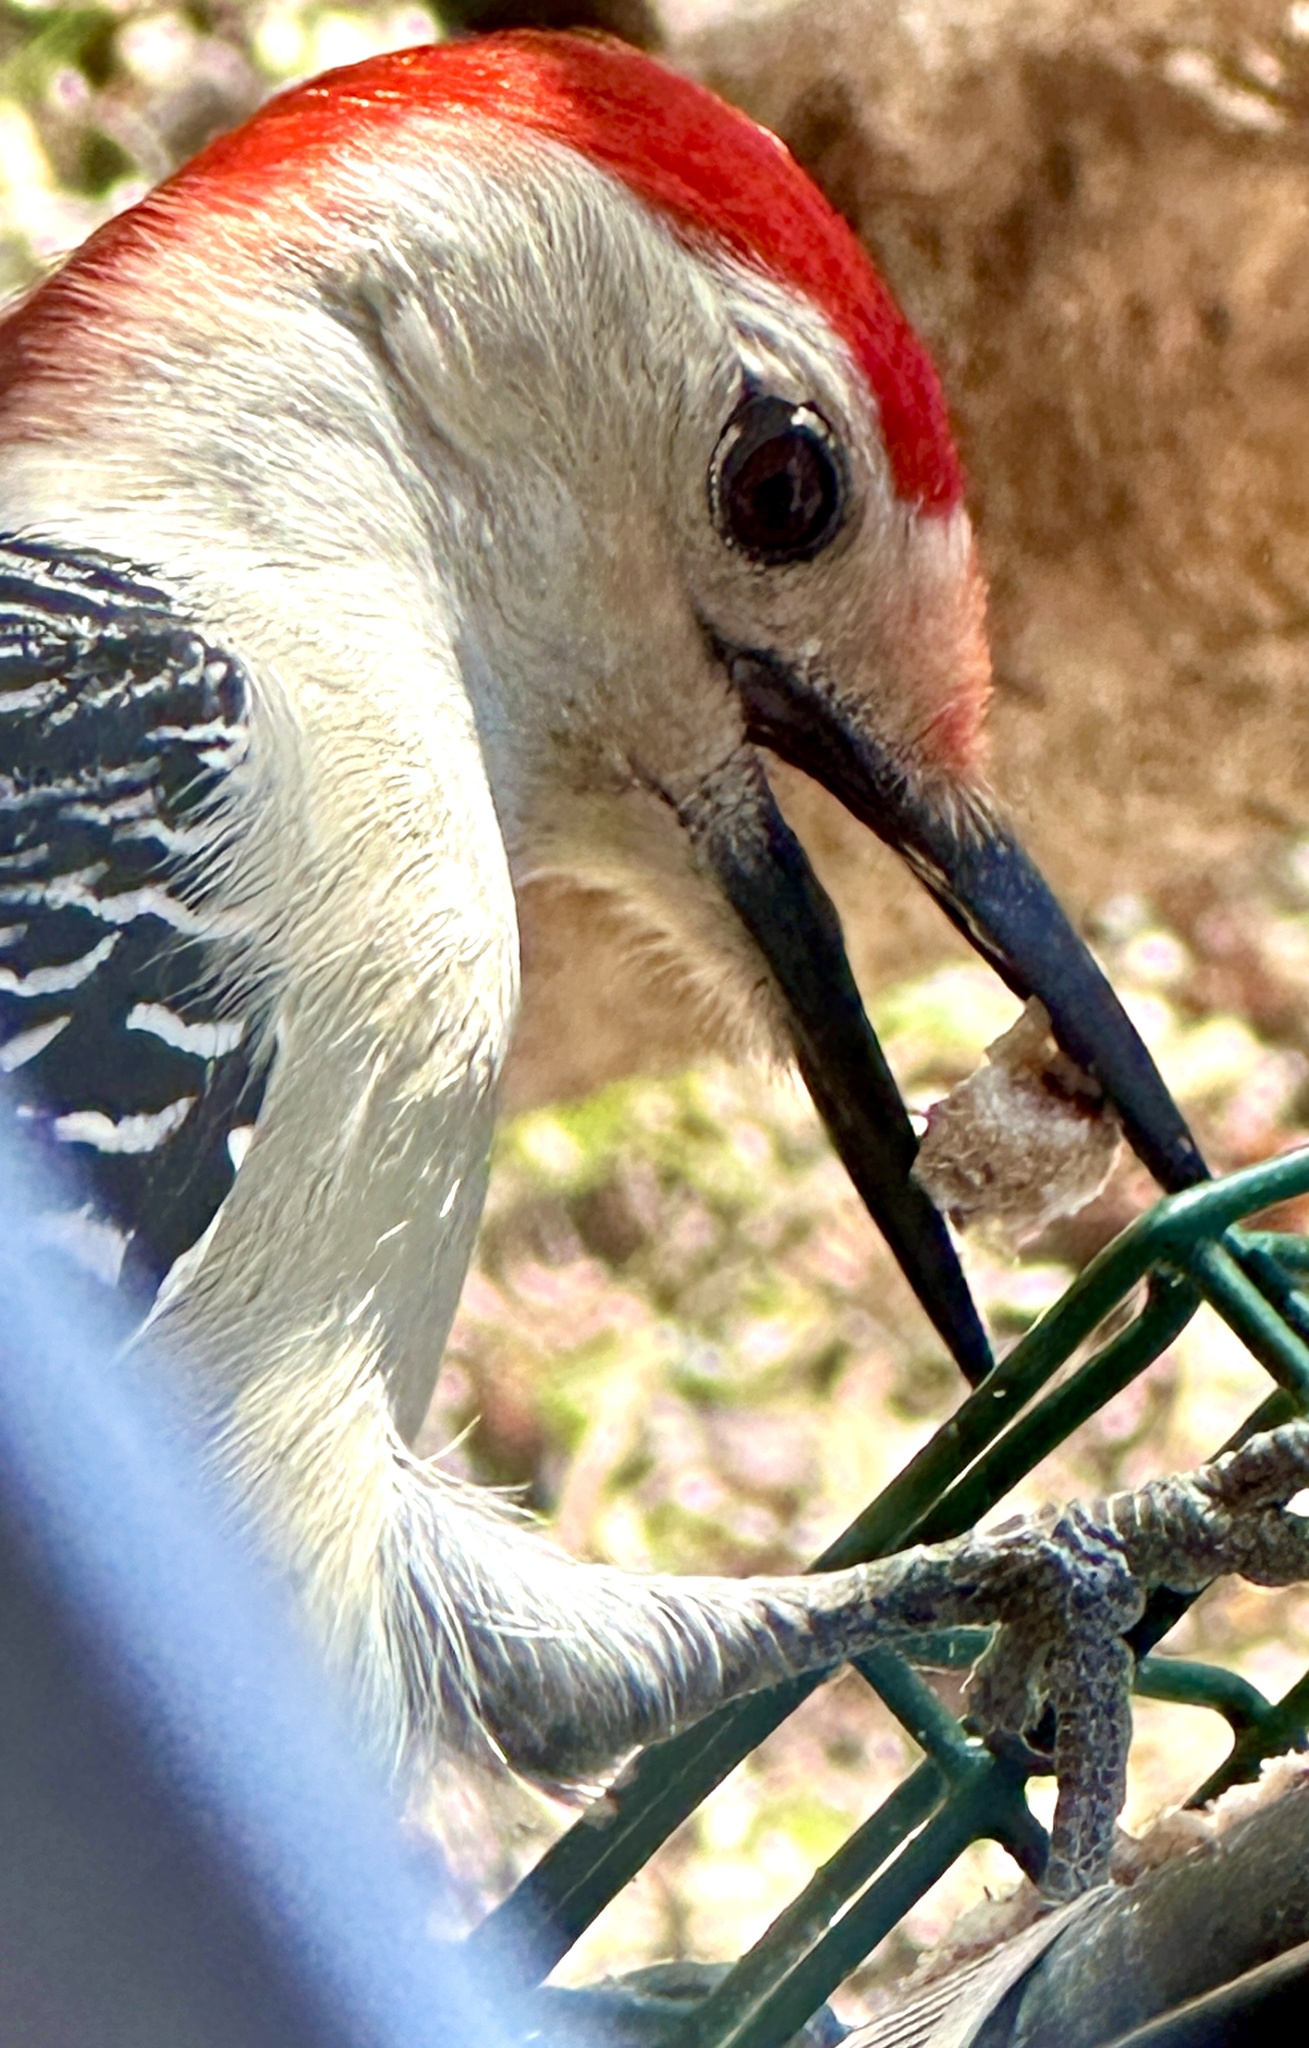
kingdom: Animalia
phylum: Chordata
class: Aves
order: Piciformes
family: Picidae
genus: Melanerpes
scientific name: Melanerpes carolinus
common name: Red-bellied woodpecker
